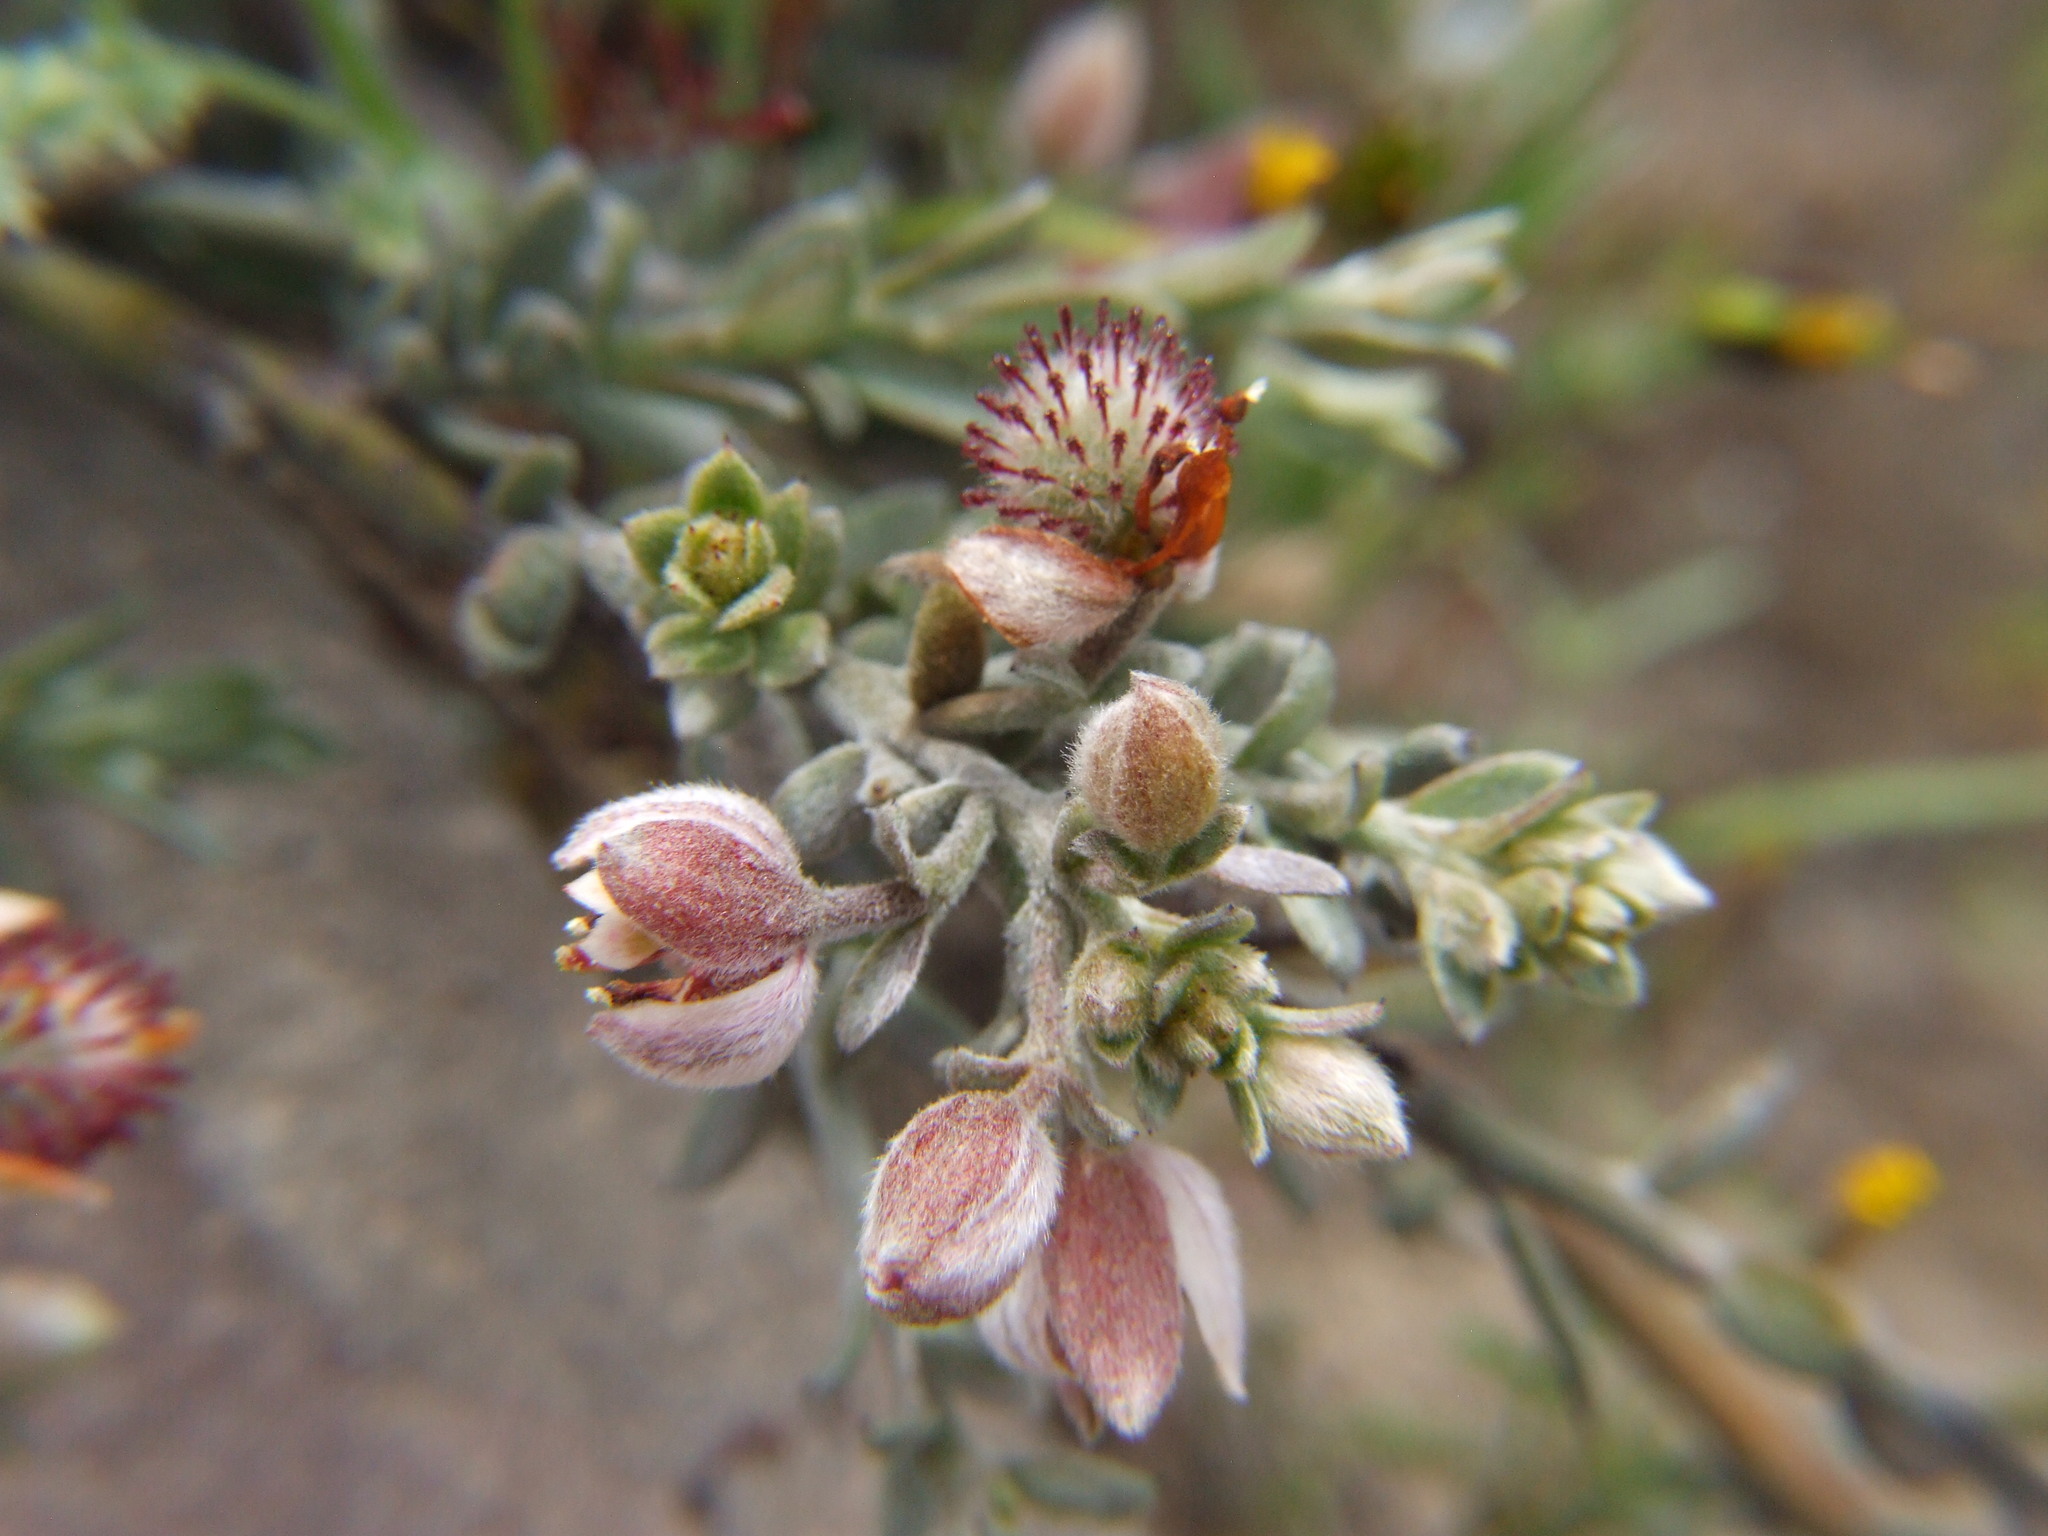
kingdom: Plantae
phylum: Tracheophyta
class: Magnoliopsida
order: Zygophyllales
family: Krameriaceae
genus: Krameria
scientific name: Krameria lappacea
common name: Rhatany
